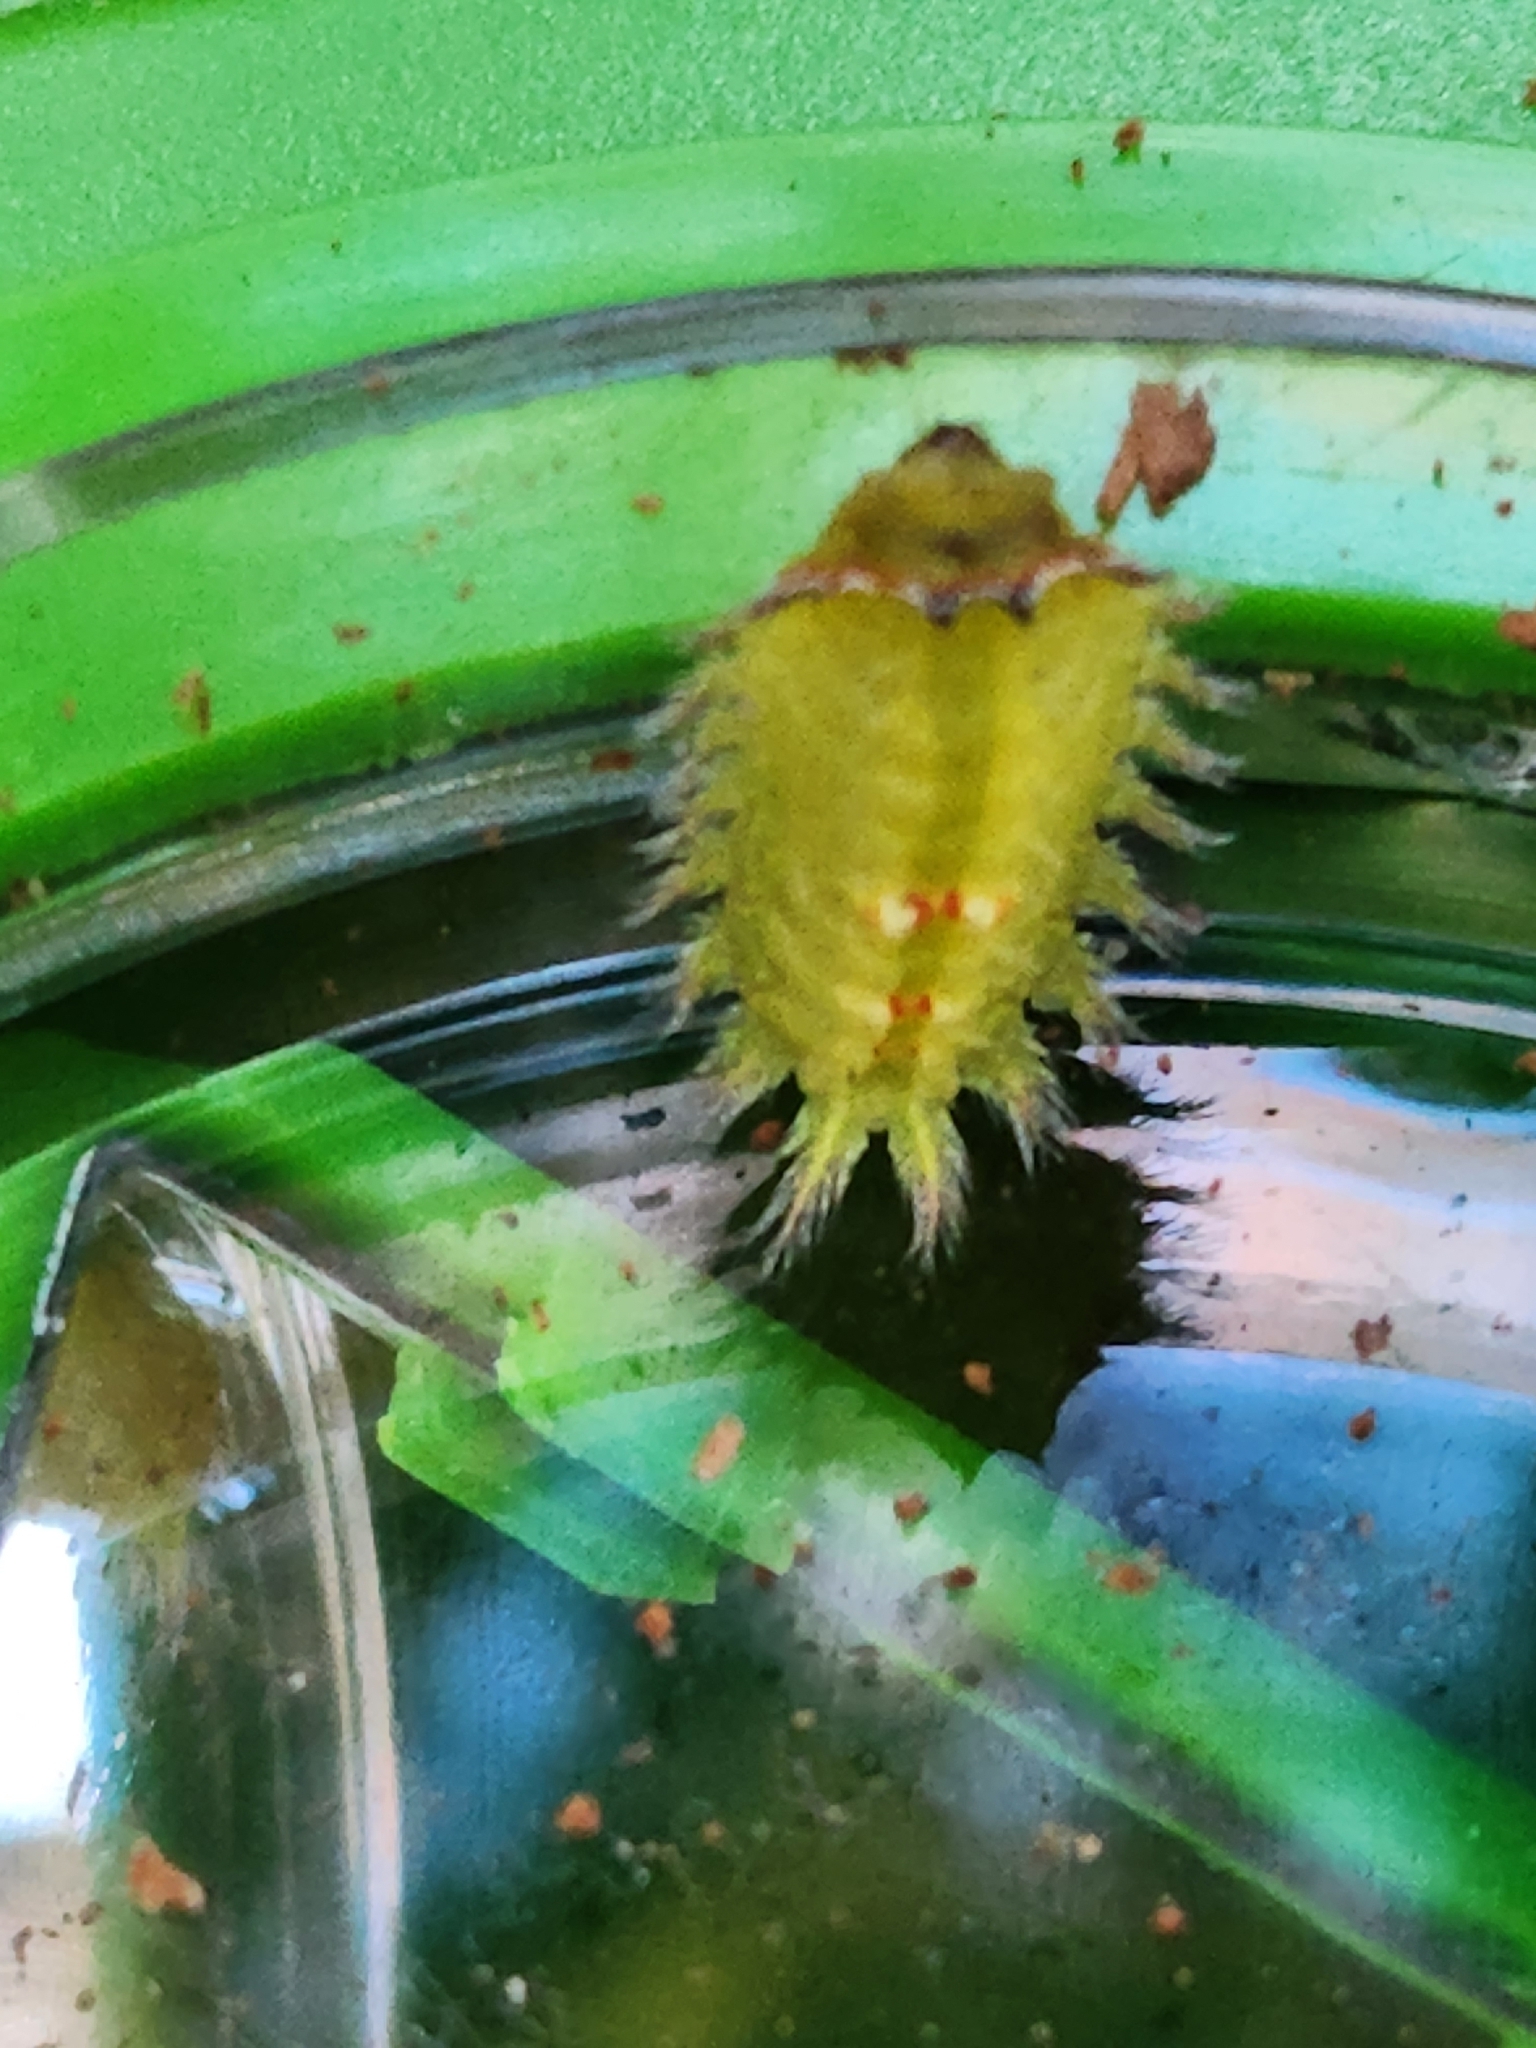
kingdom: Animalia
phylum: Arthropoda
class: Insecta
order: Lepidoptera
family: Limacodidae
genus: Isa
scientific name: Isa textula
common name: Crowned slug moth
